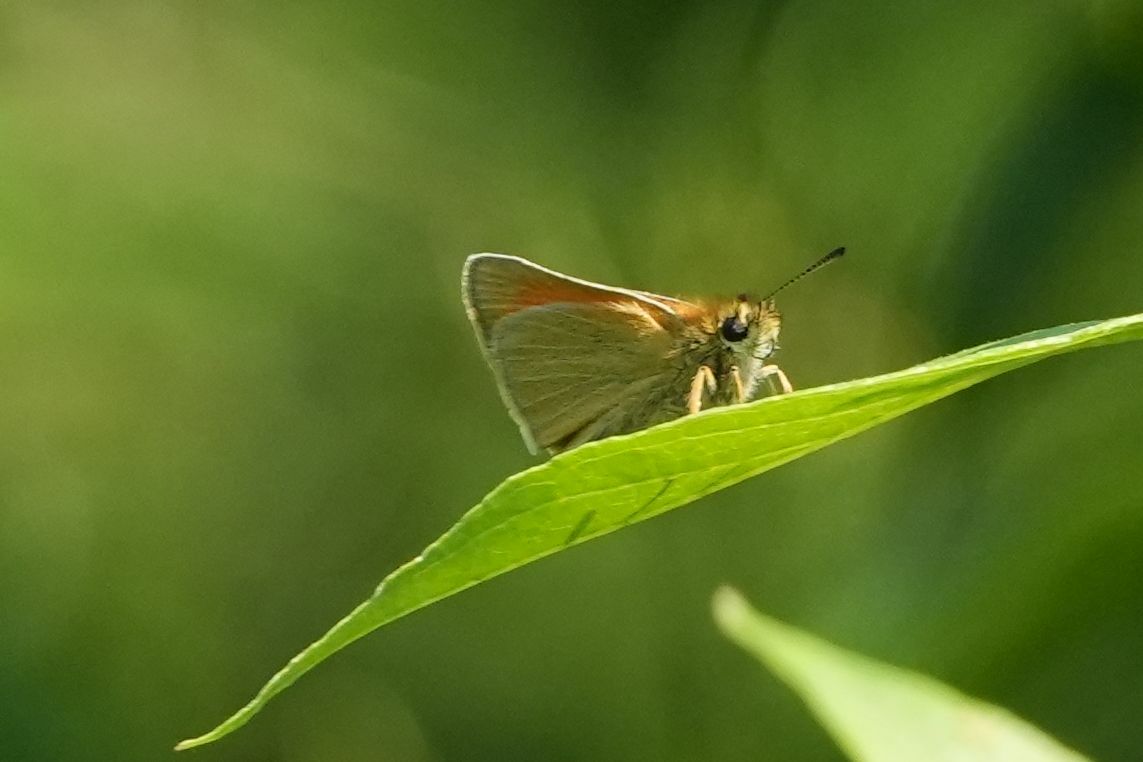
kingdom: Animalia
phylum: Arthropoda
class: Insecta
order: Lepidoptera
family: Hesperiidae
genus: Thymelicus
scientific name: Thymelicus lineola
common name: Essex skipper
